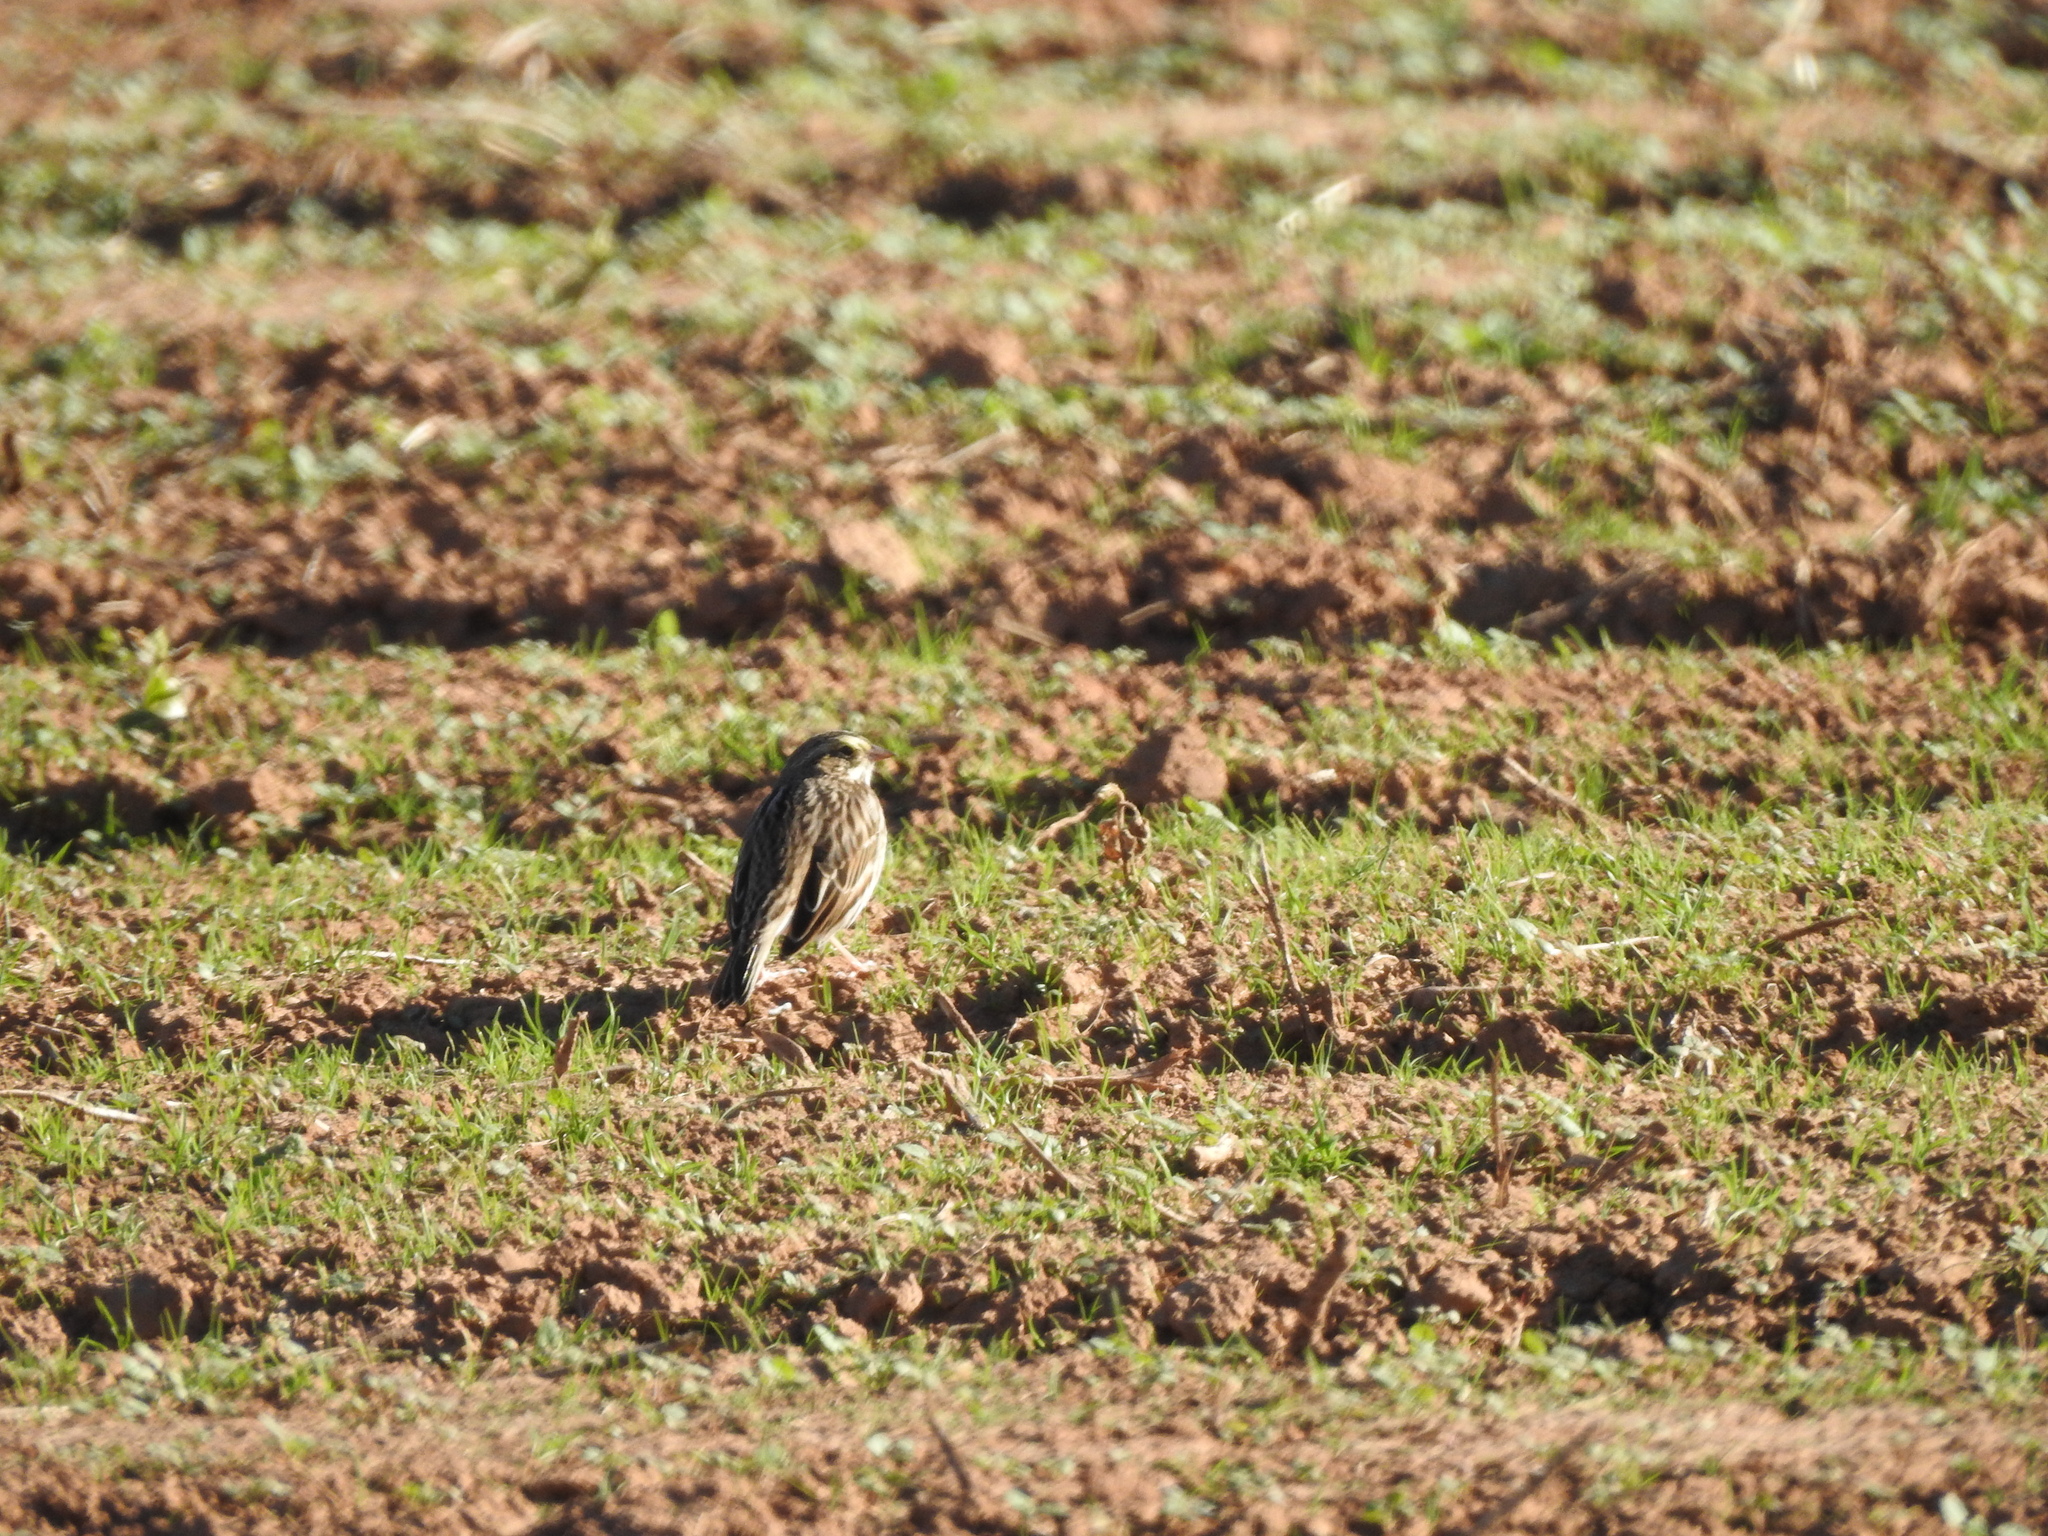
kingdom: Animalia
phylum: Chordata
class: Aves
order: Passeriformes
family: Passerellidae
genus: Passerculus
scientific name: Passerculus sandwichensis
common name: Savannah sparrow
